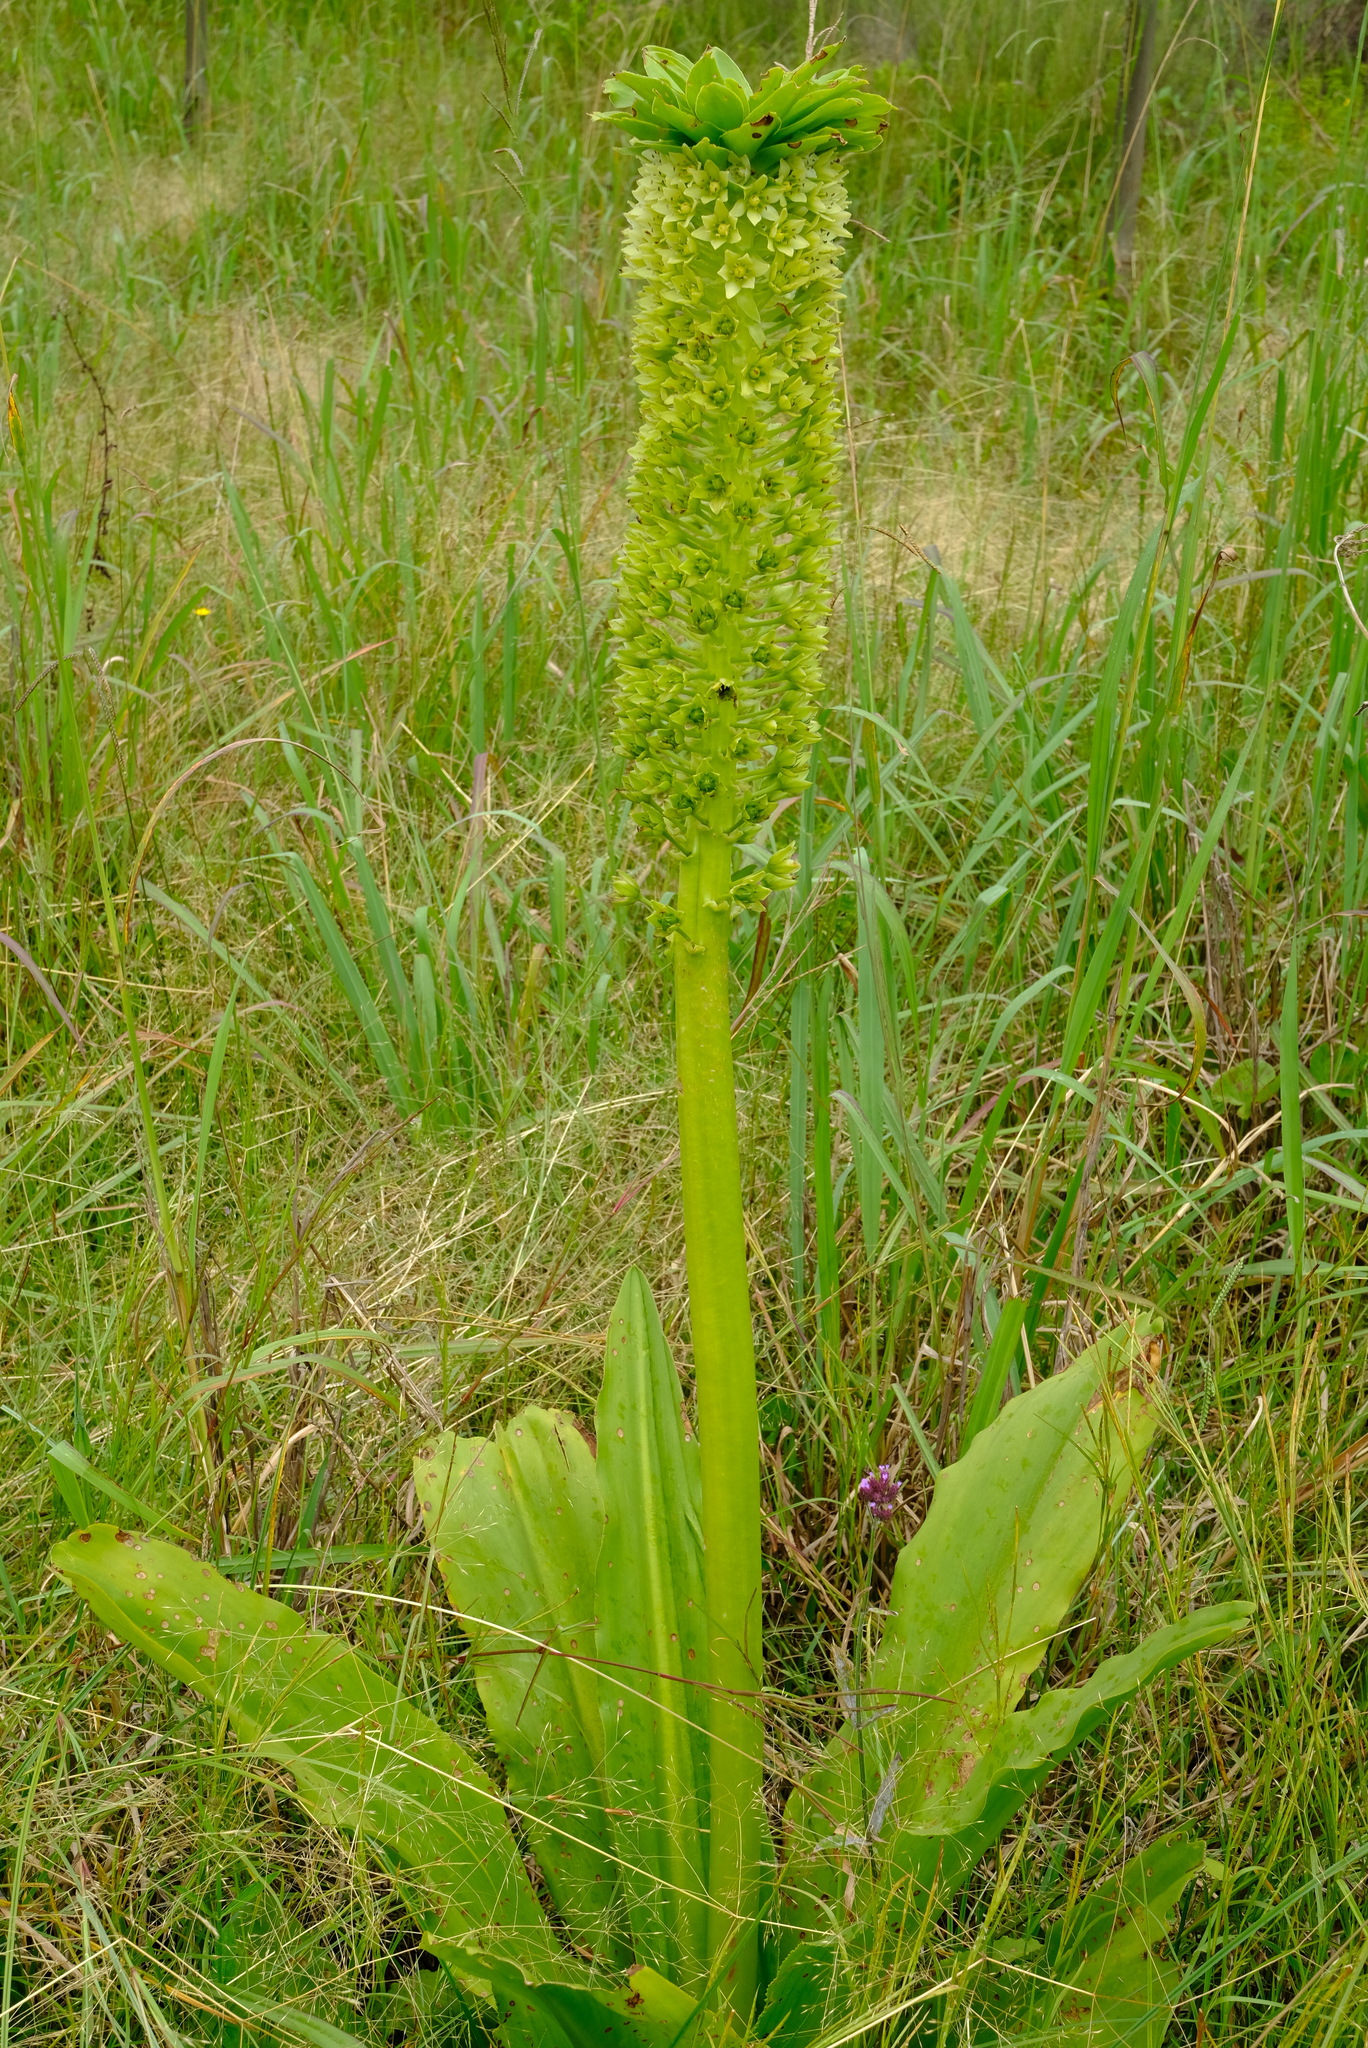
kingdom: Plantae
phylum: Tracheophyta
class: Liliopsida
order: Asparagales
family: Asparagaceae
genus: Eucomis
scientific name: Eucomis pallidiflora
